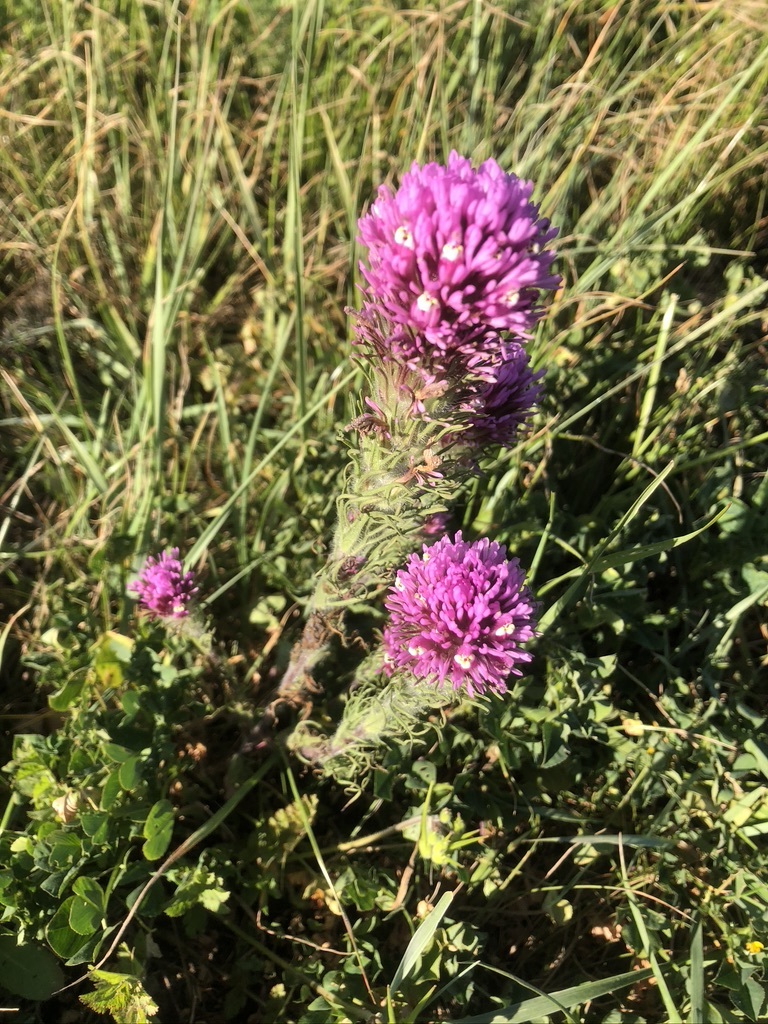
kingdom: Plantae
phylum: Tracheophyta
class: Magnoliopsida
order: Lamiales
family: Orobanchaceae
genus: Castilleja
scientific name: Castilleja exserta
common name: Purple owl-clover
